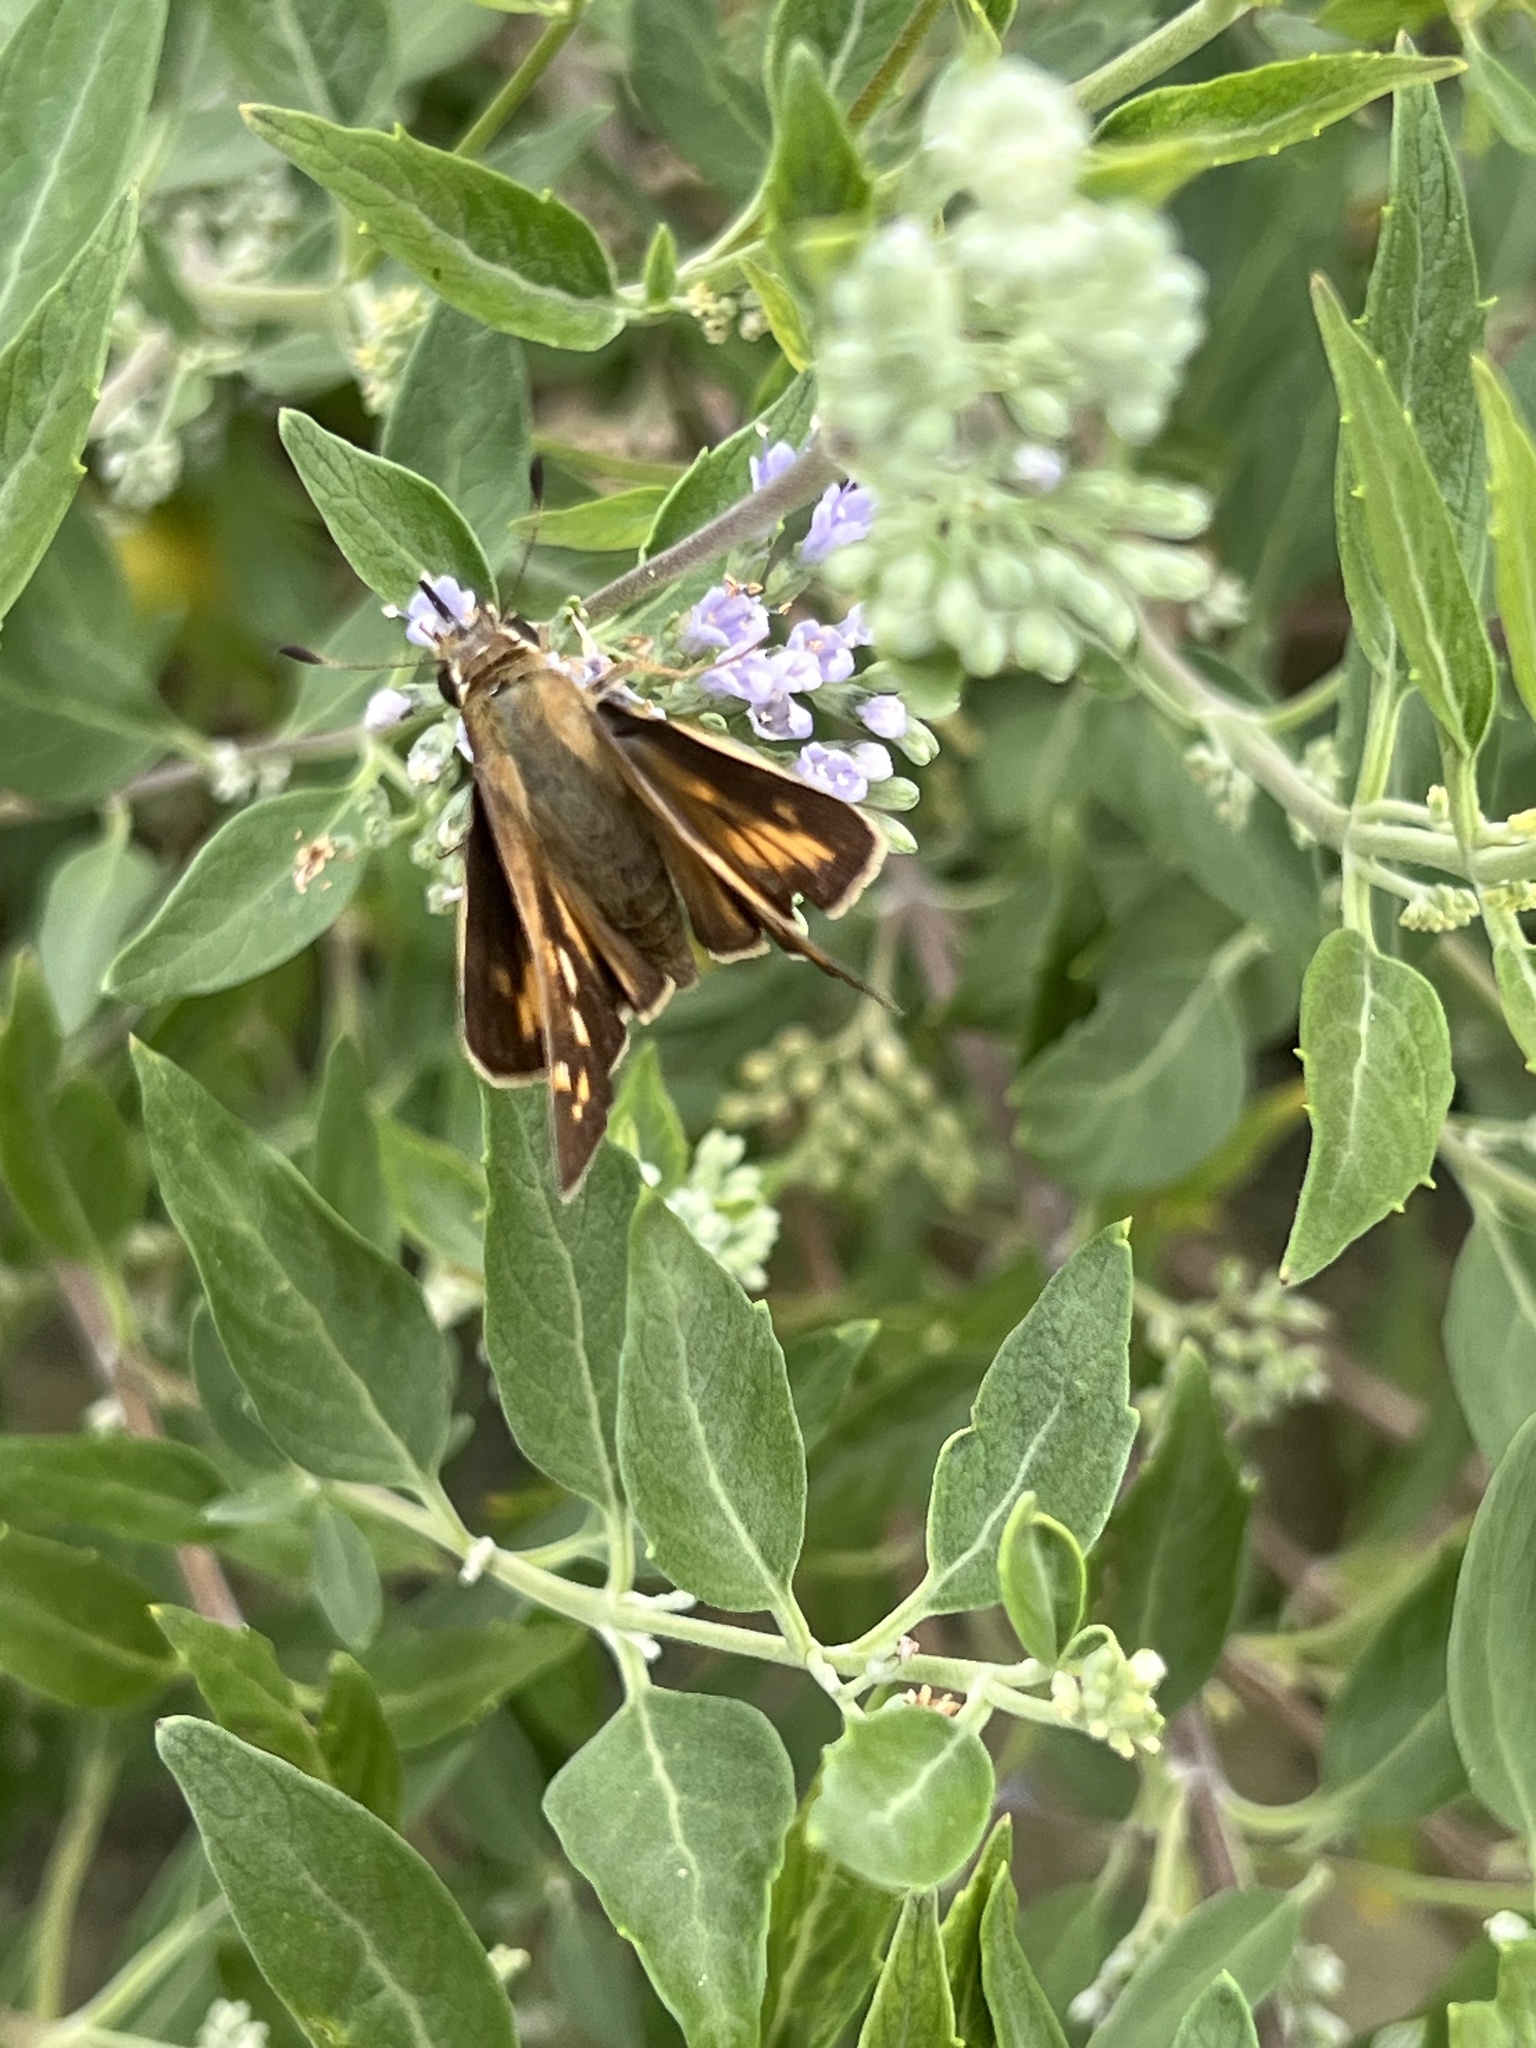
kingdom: Animalia
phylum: Arthropoda
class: Insecta
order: Lepidoptera
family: Hesperiidae
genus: Atalopedes
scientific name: Atalopedes
